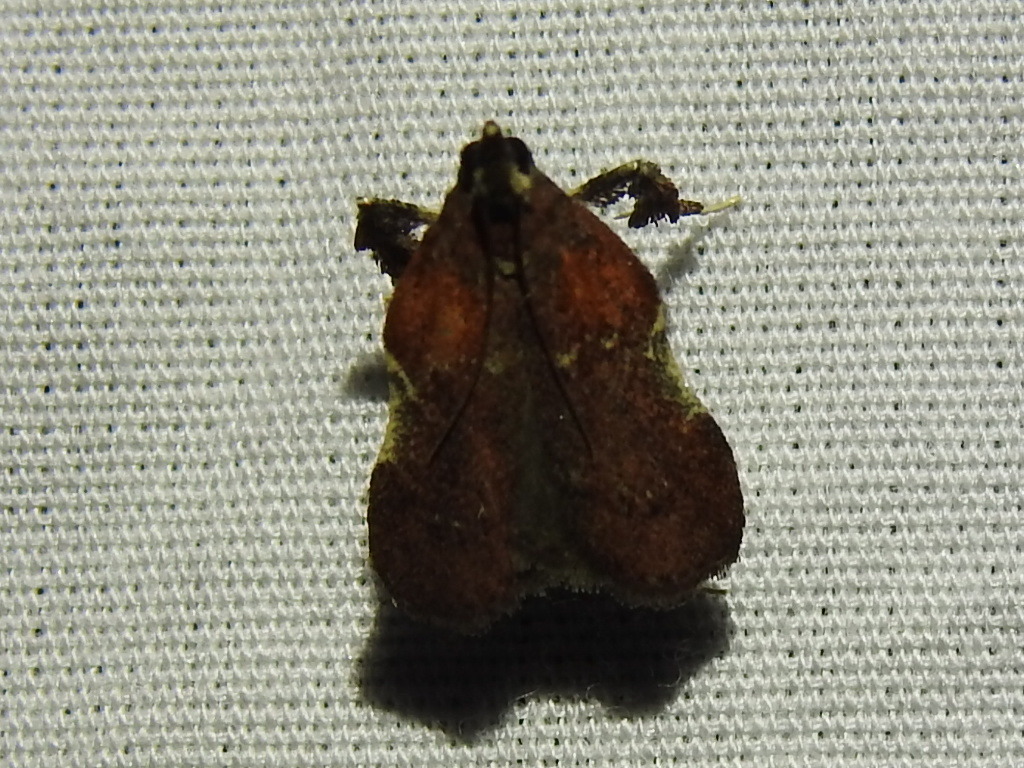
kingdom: Animalia
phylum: Arthropoda
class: Insecta
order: Lepidoptera
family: Pyralidae
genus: Galasa
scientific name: Galasa nigrinodis
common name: Boxwood leaftier moth
